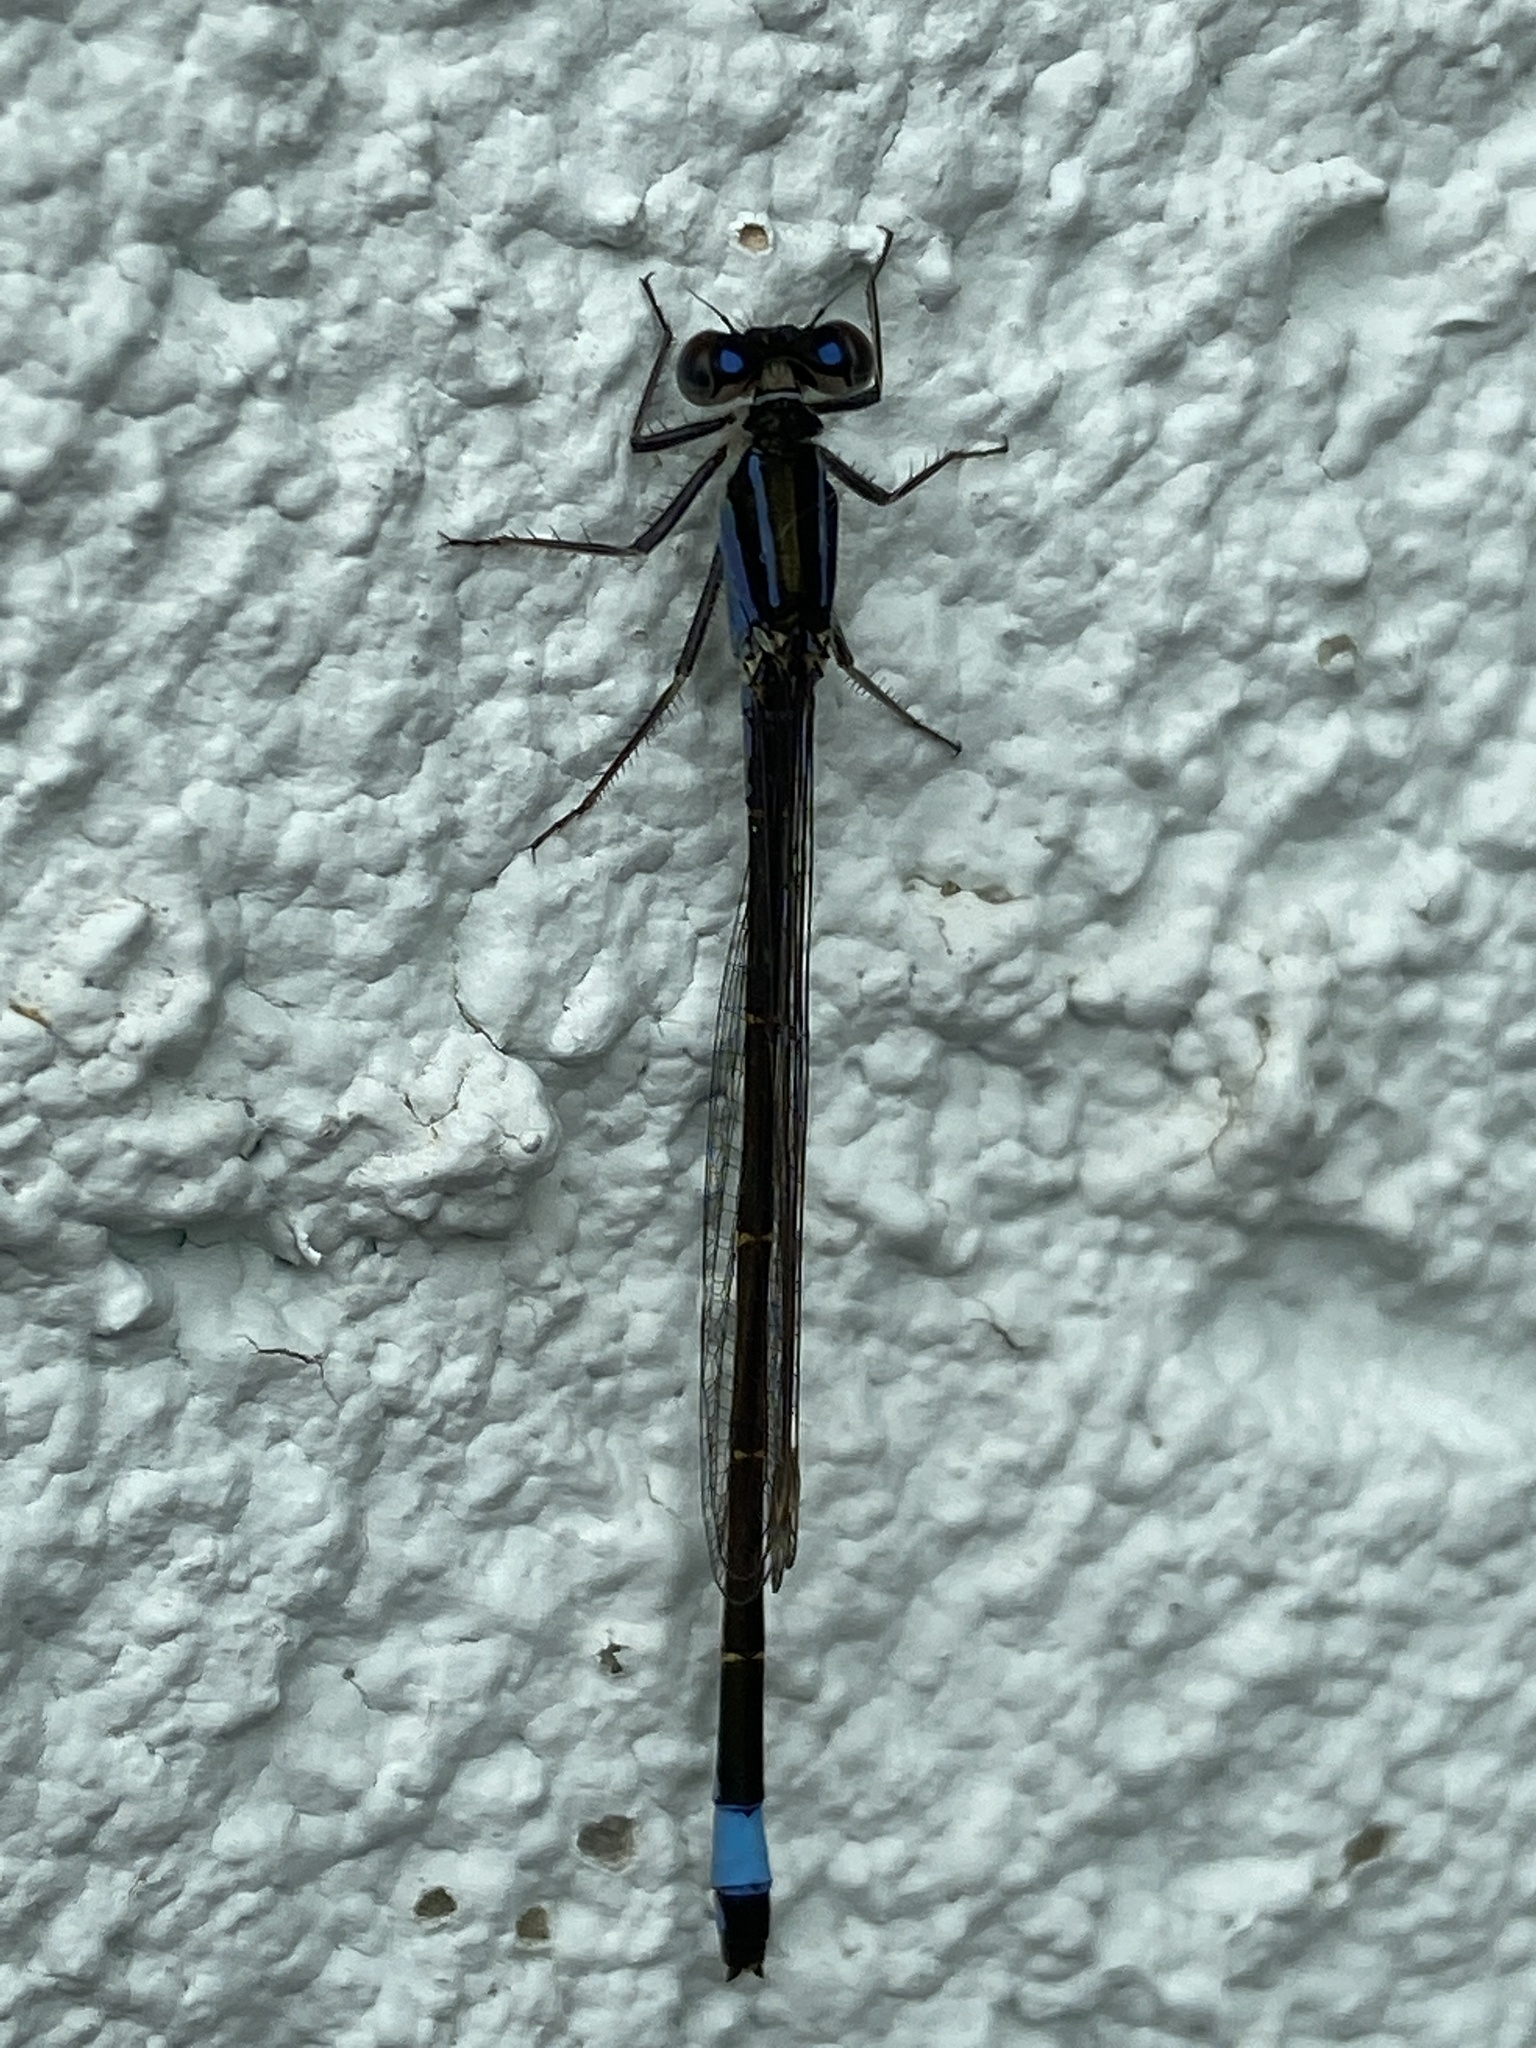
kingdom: Animalia
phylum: Arthropoda
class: Insecta
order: Odonata
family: Coenagrionidae
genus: Ischnura
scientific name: Ischnura elegans
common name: Blue-tailed damselfly
